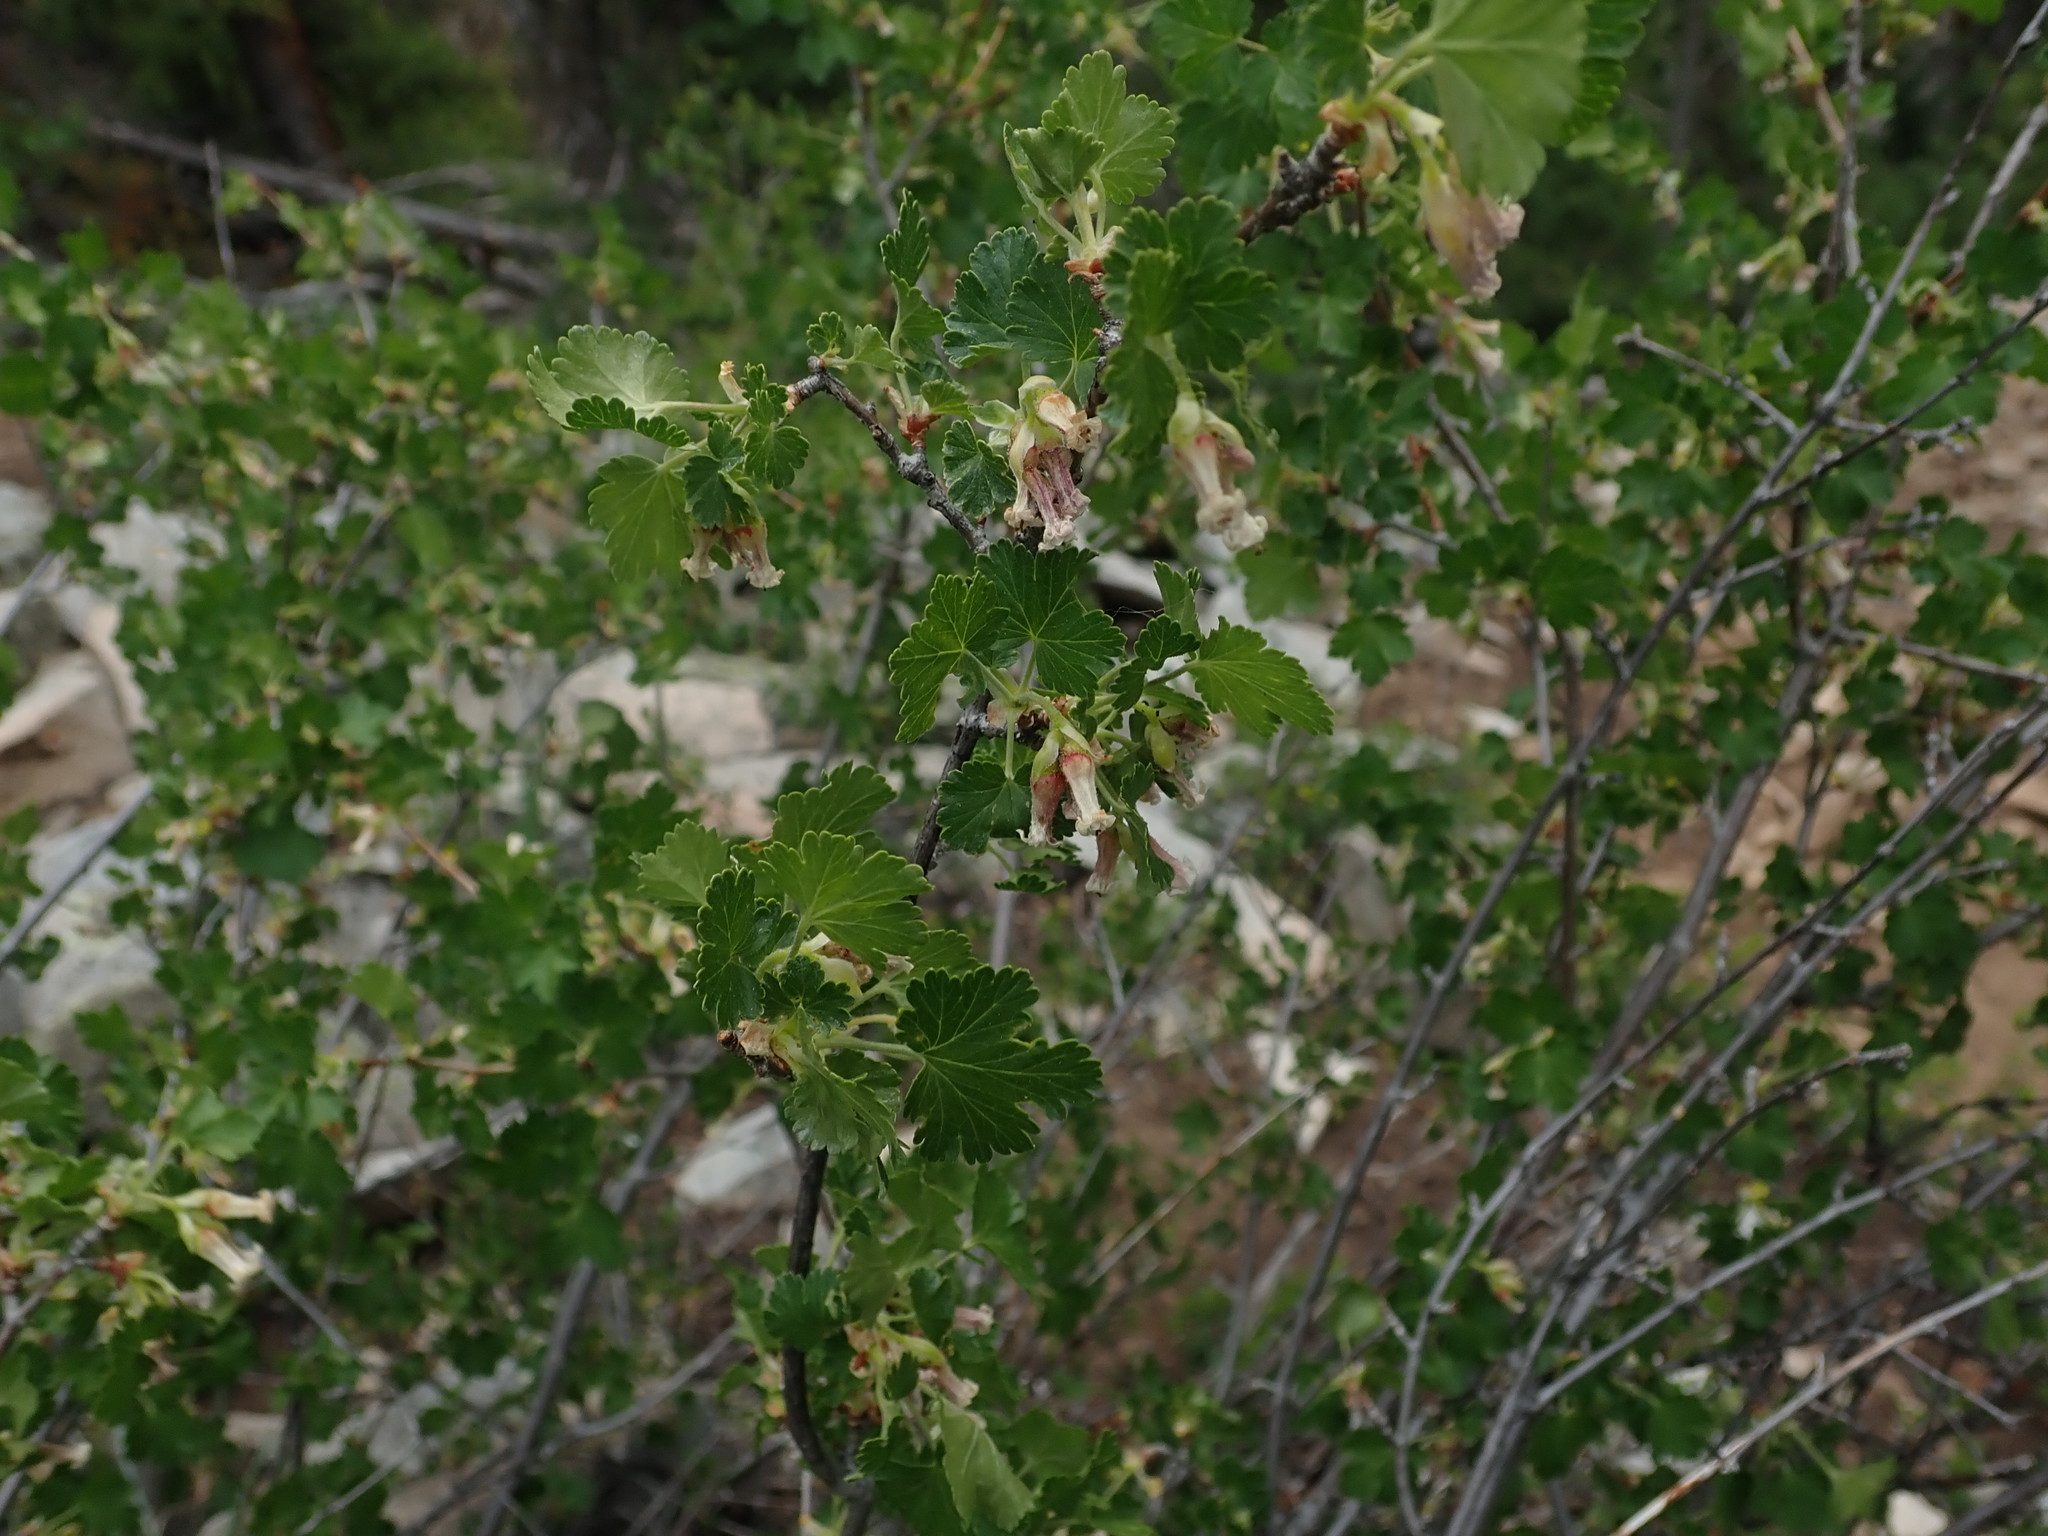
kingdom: Plantae
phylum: Tracheophyta
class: Magnoliopsida
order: Saxifragales
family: Grossulariaceae
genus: Ribes
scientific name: Ribes cereum
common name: Wax currant
